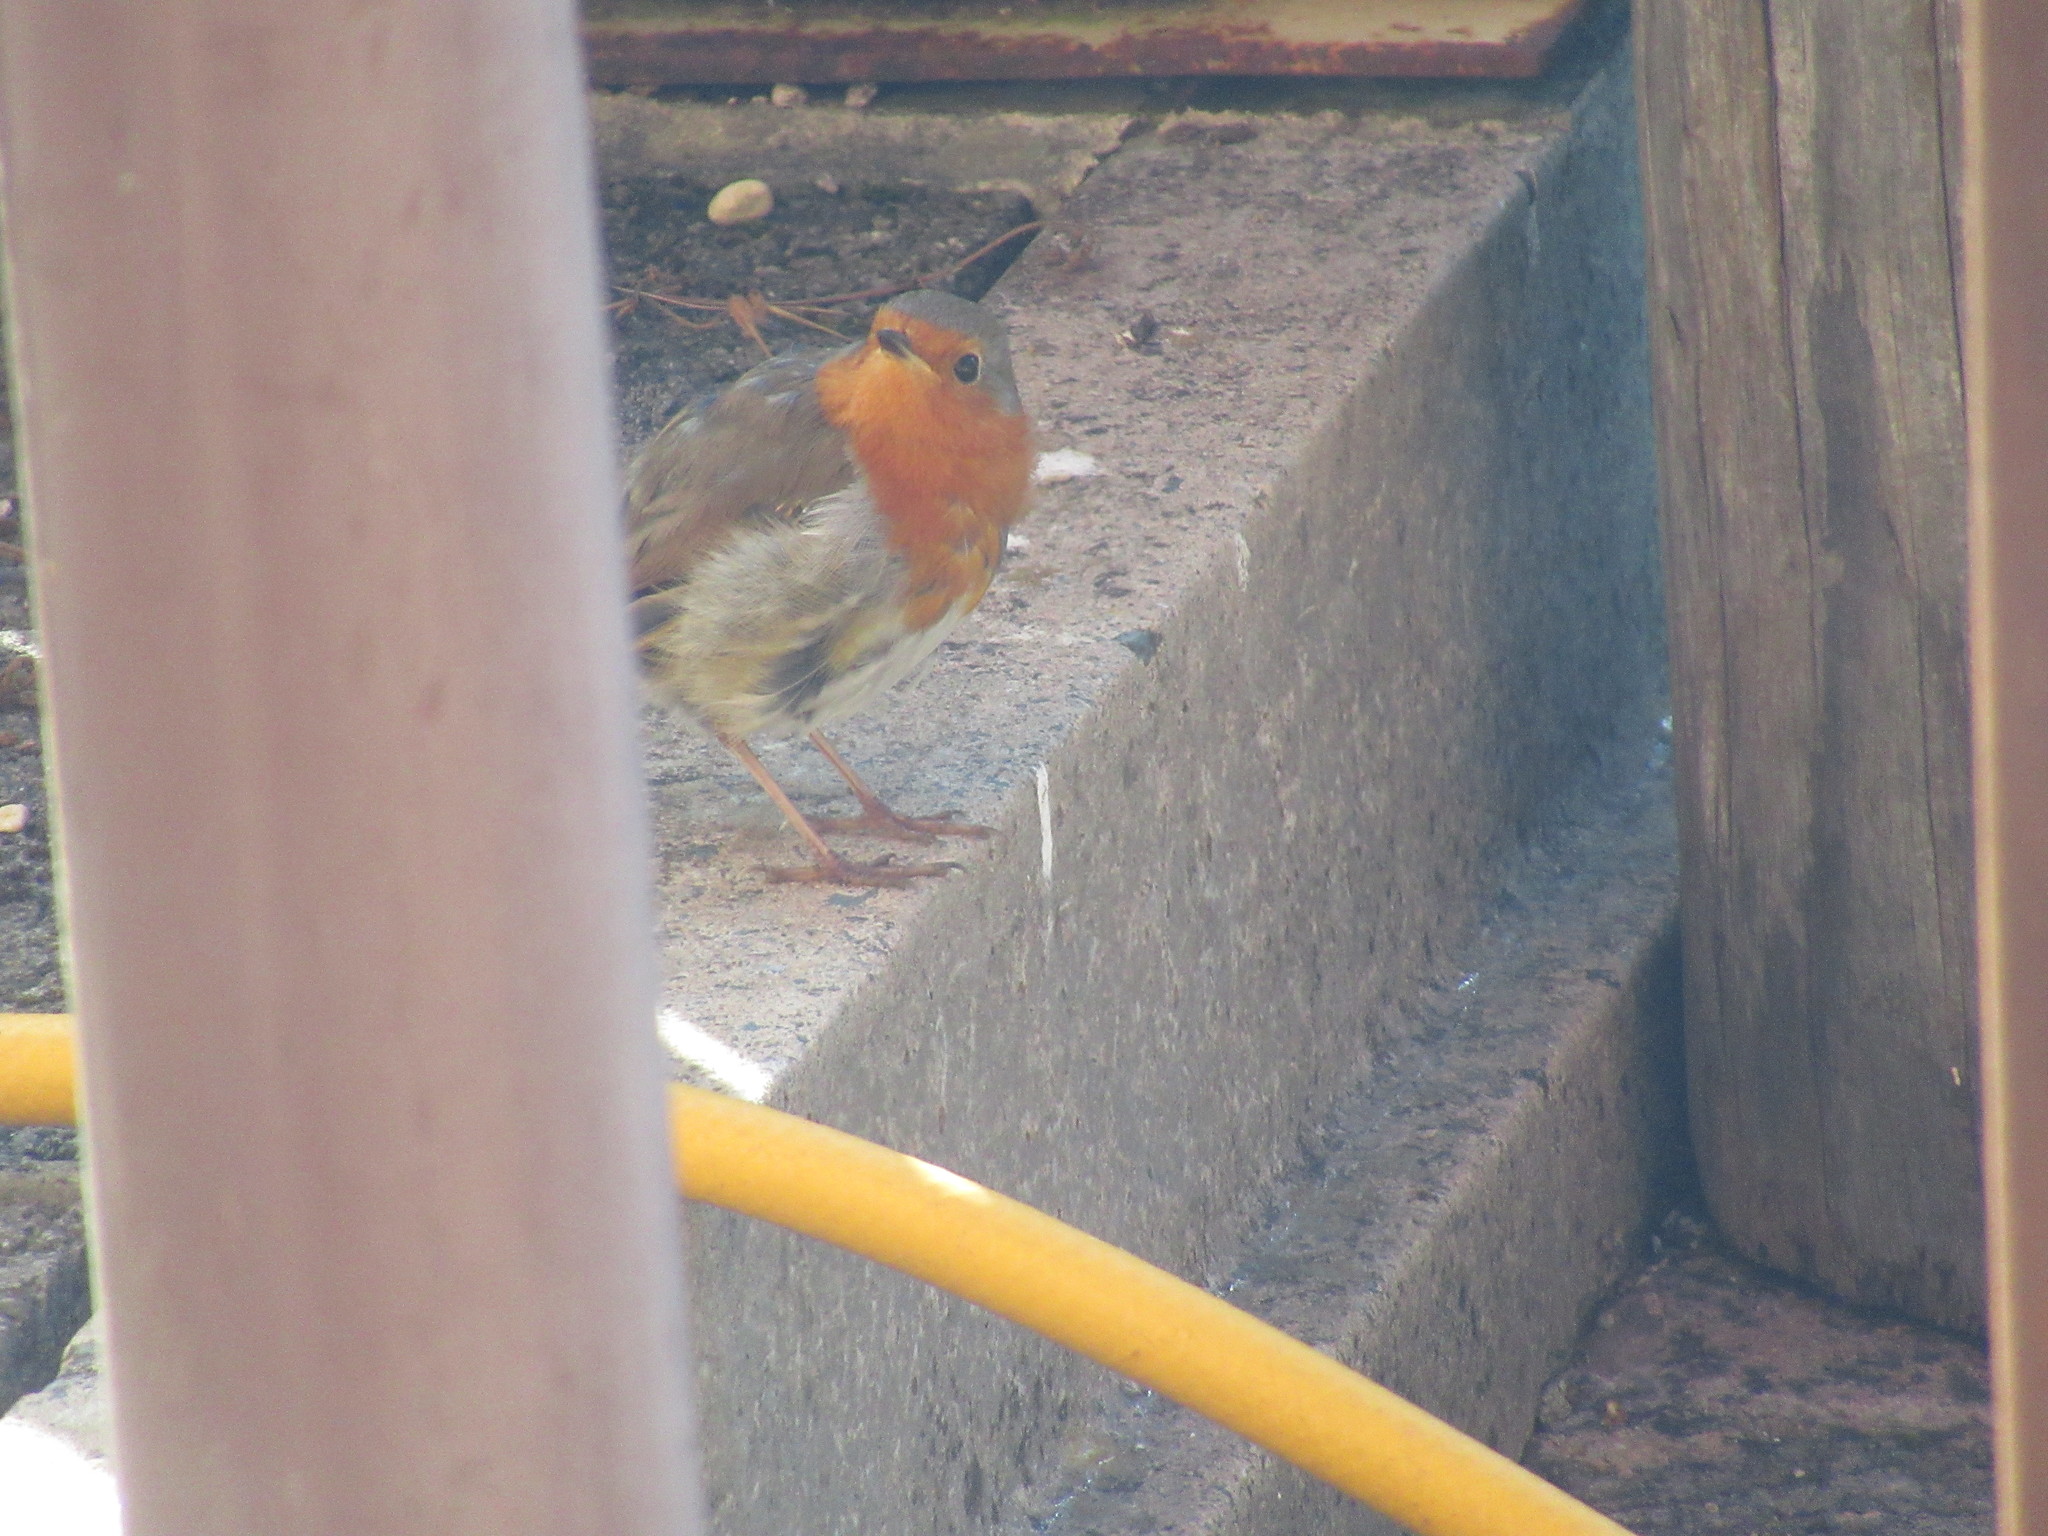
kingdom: Animalia
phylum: Chordata
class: Aves
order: Passeriformes
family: Muscicapidae
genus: Erithacus
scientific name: Erithacus rubecula
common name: European robin
